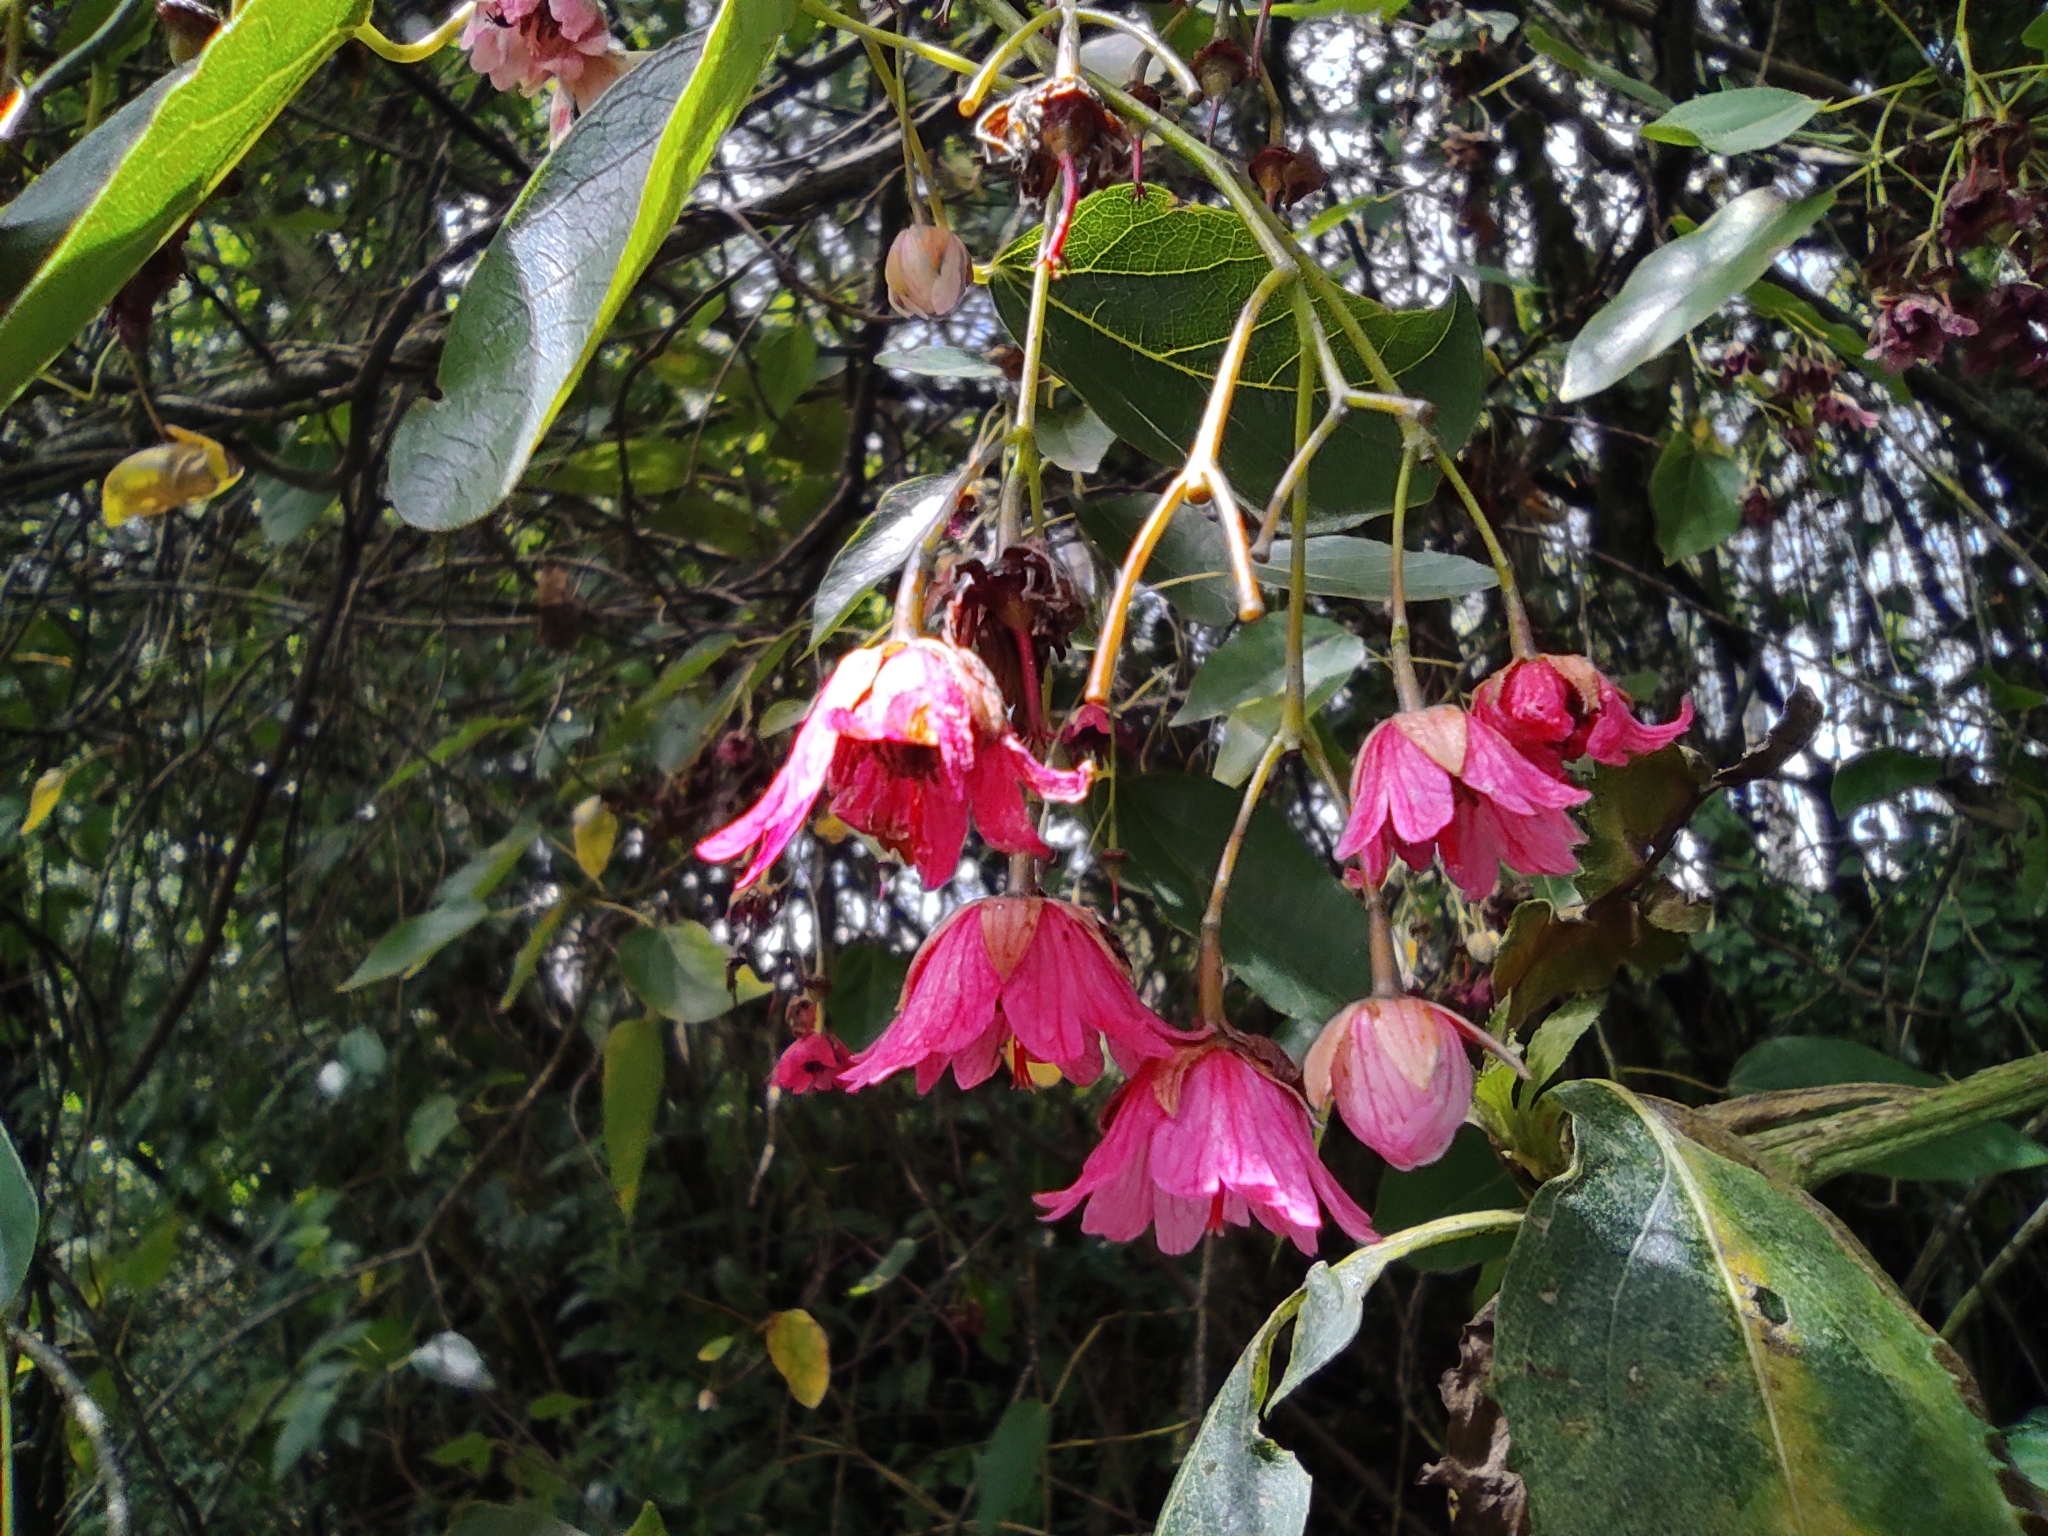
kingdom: Plantae
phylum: Tracheophyta
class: Magnoliopsida
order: Oxalidales
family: Elaeocarpaceae
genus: Vallea
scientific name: Vallea stipularis
